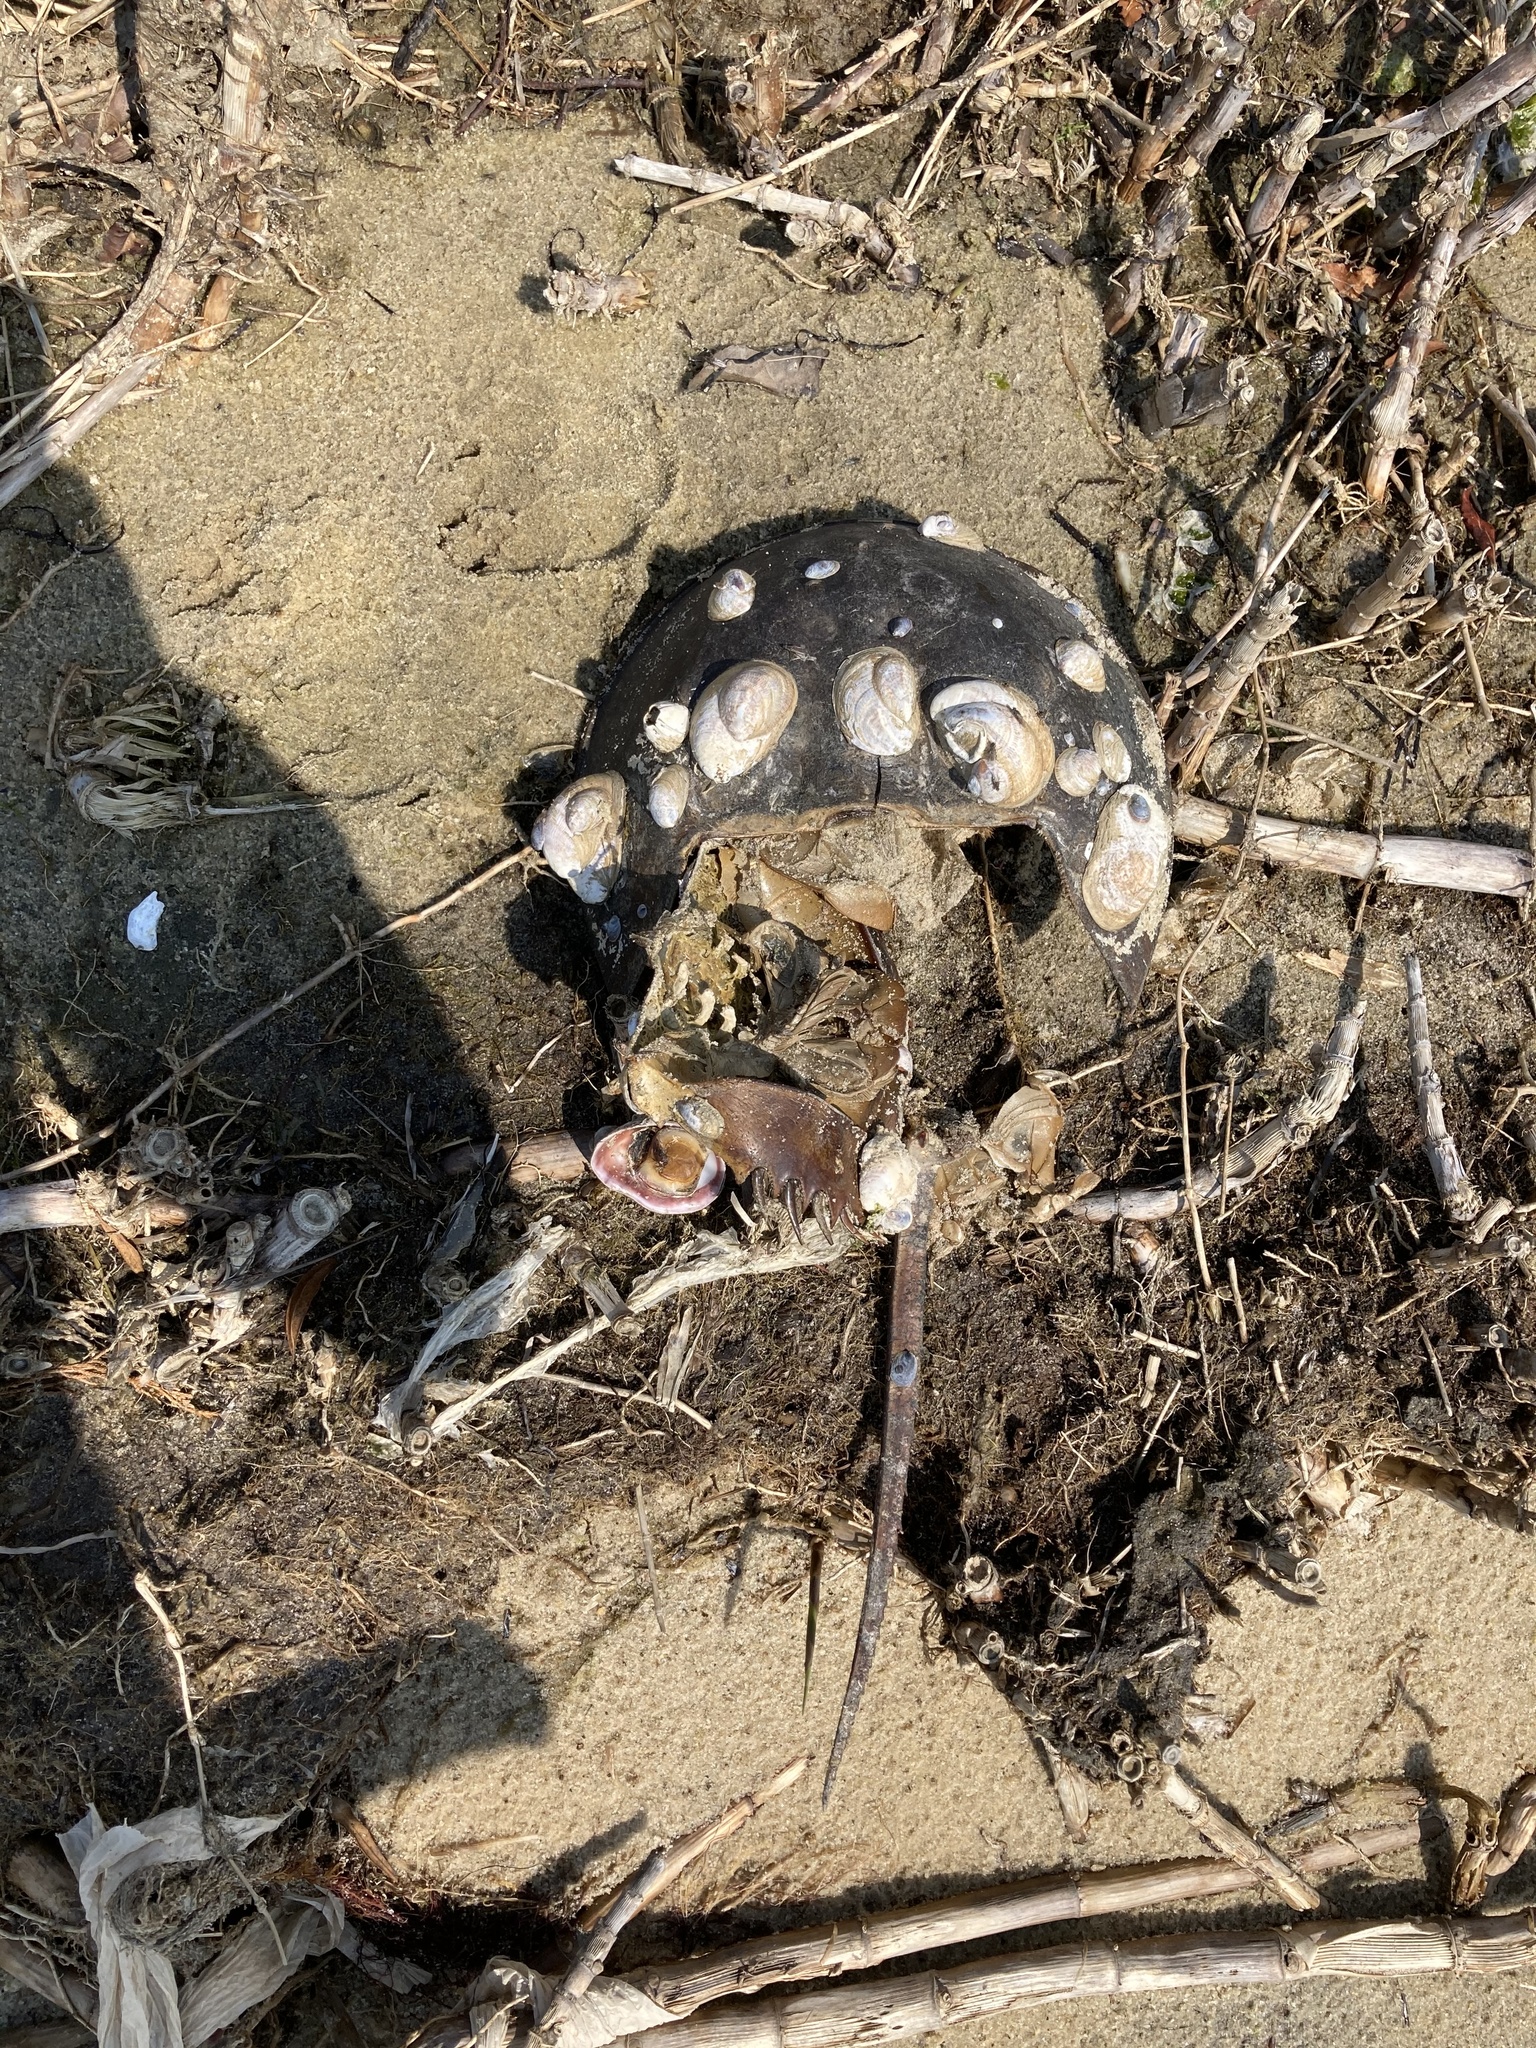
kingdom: Animalia
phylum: Arthropoda
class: Merostomata
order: Xiphosurida
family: Limulidae
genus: Limulus
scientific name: Limulus polyphemus
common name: Horseshoe crab
